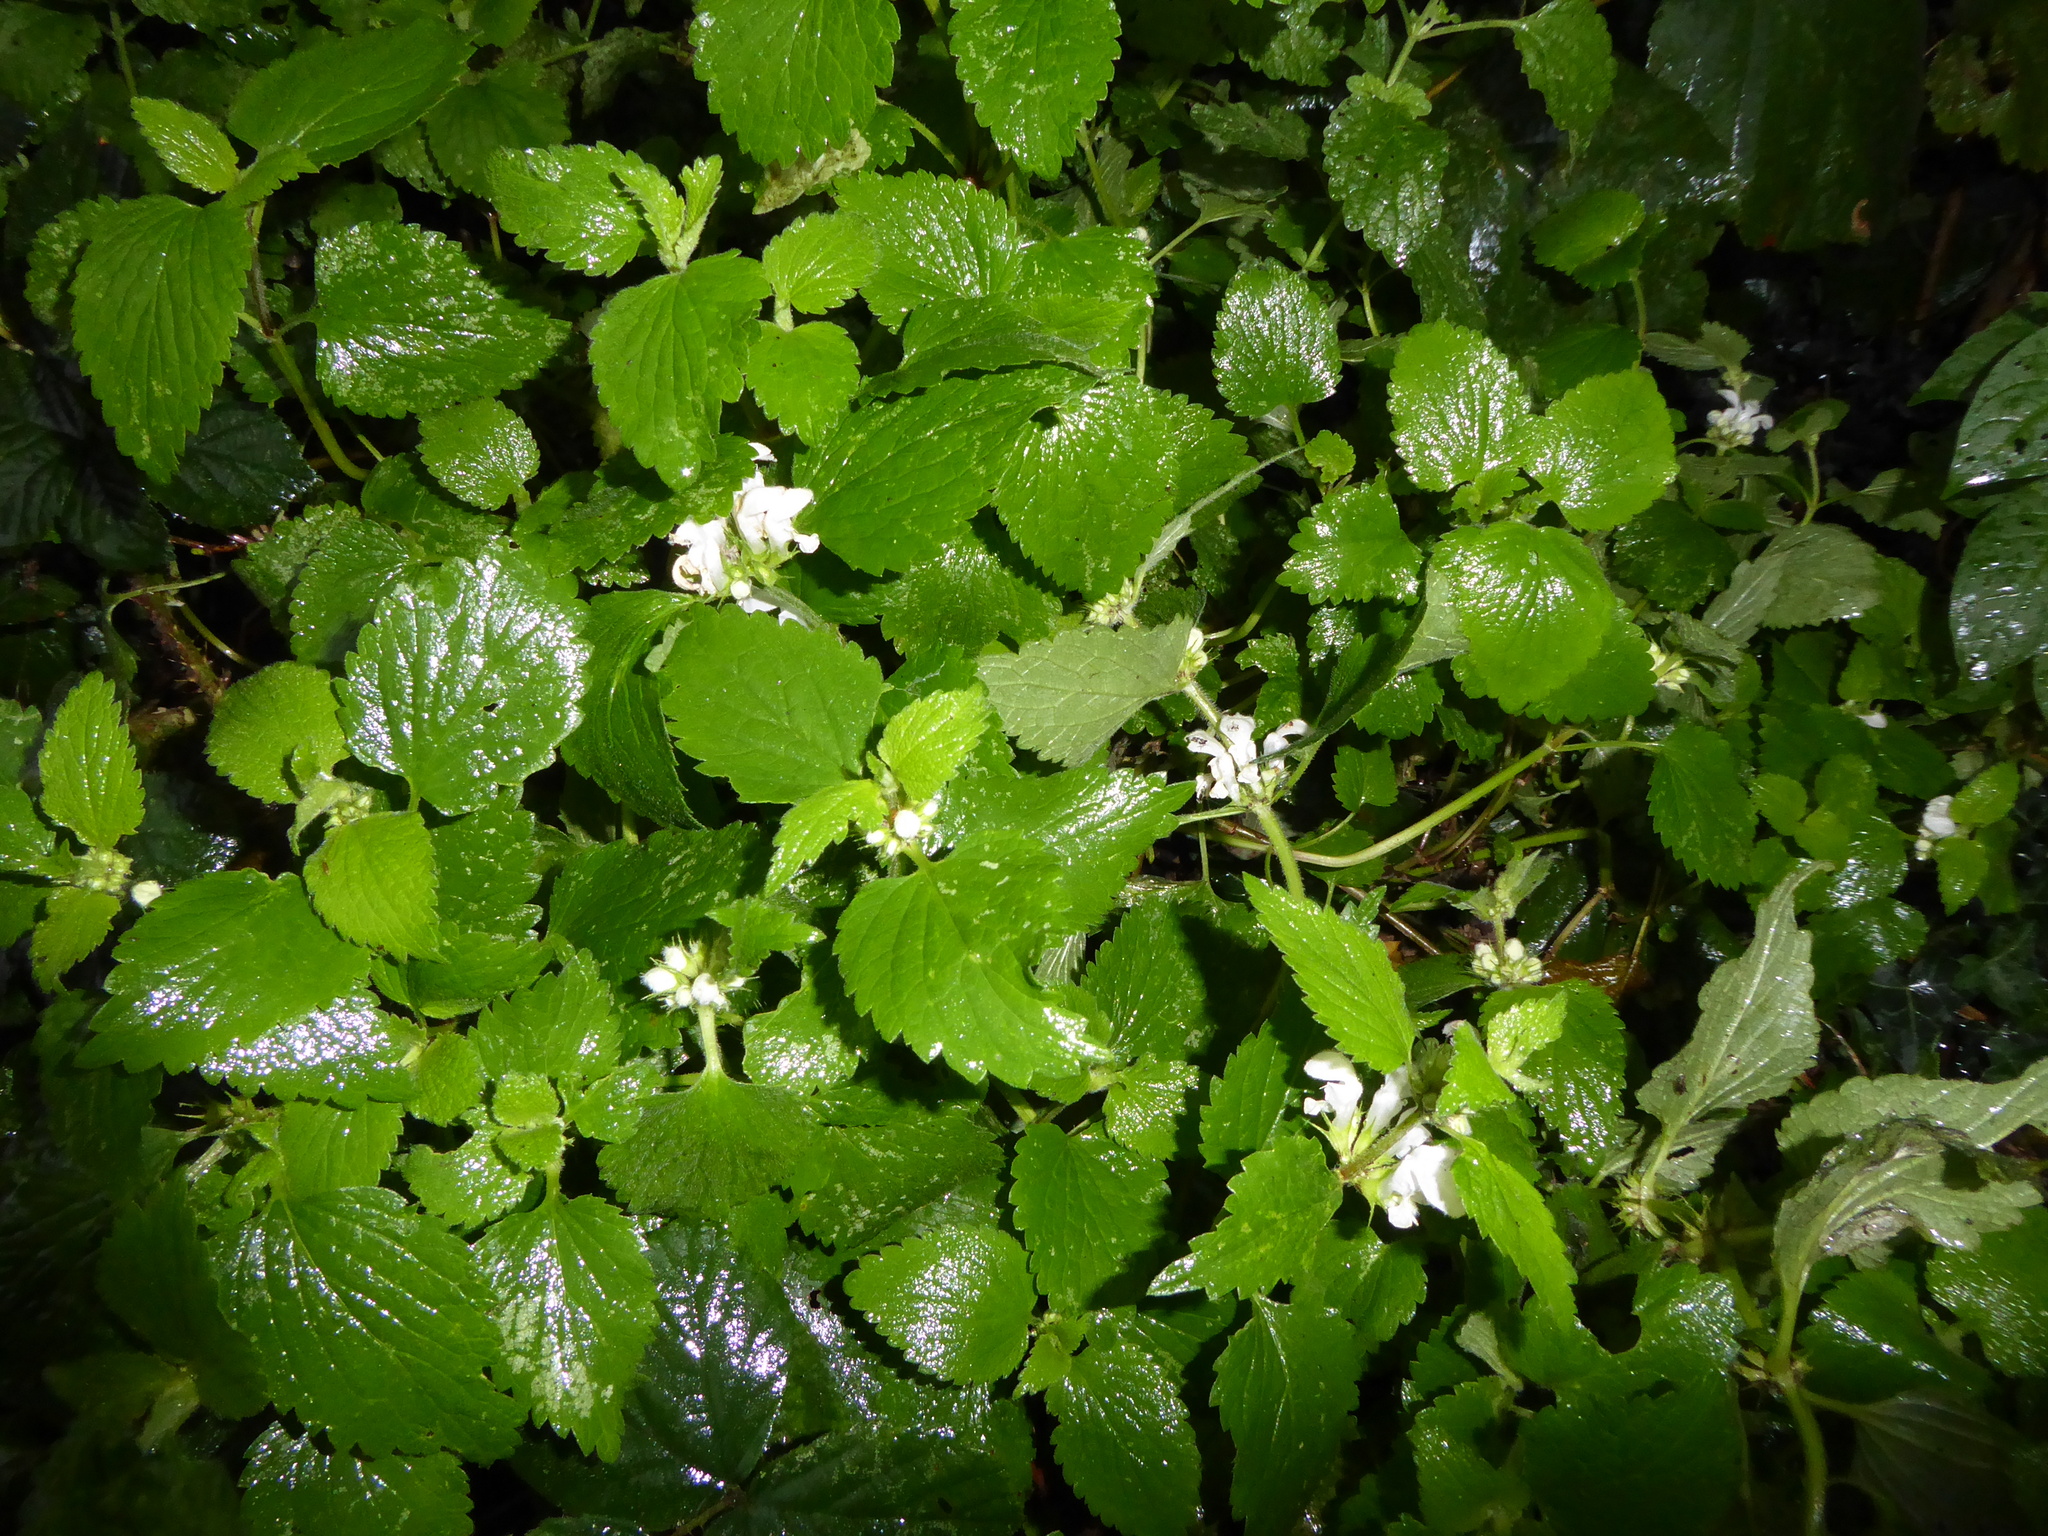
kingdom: Plantae
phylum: Tracheophyta
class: Magnoliopsida
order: Lamiales
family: Lamiaceae
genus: Lamium
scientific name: Lamium album
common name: White dead-nettle
